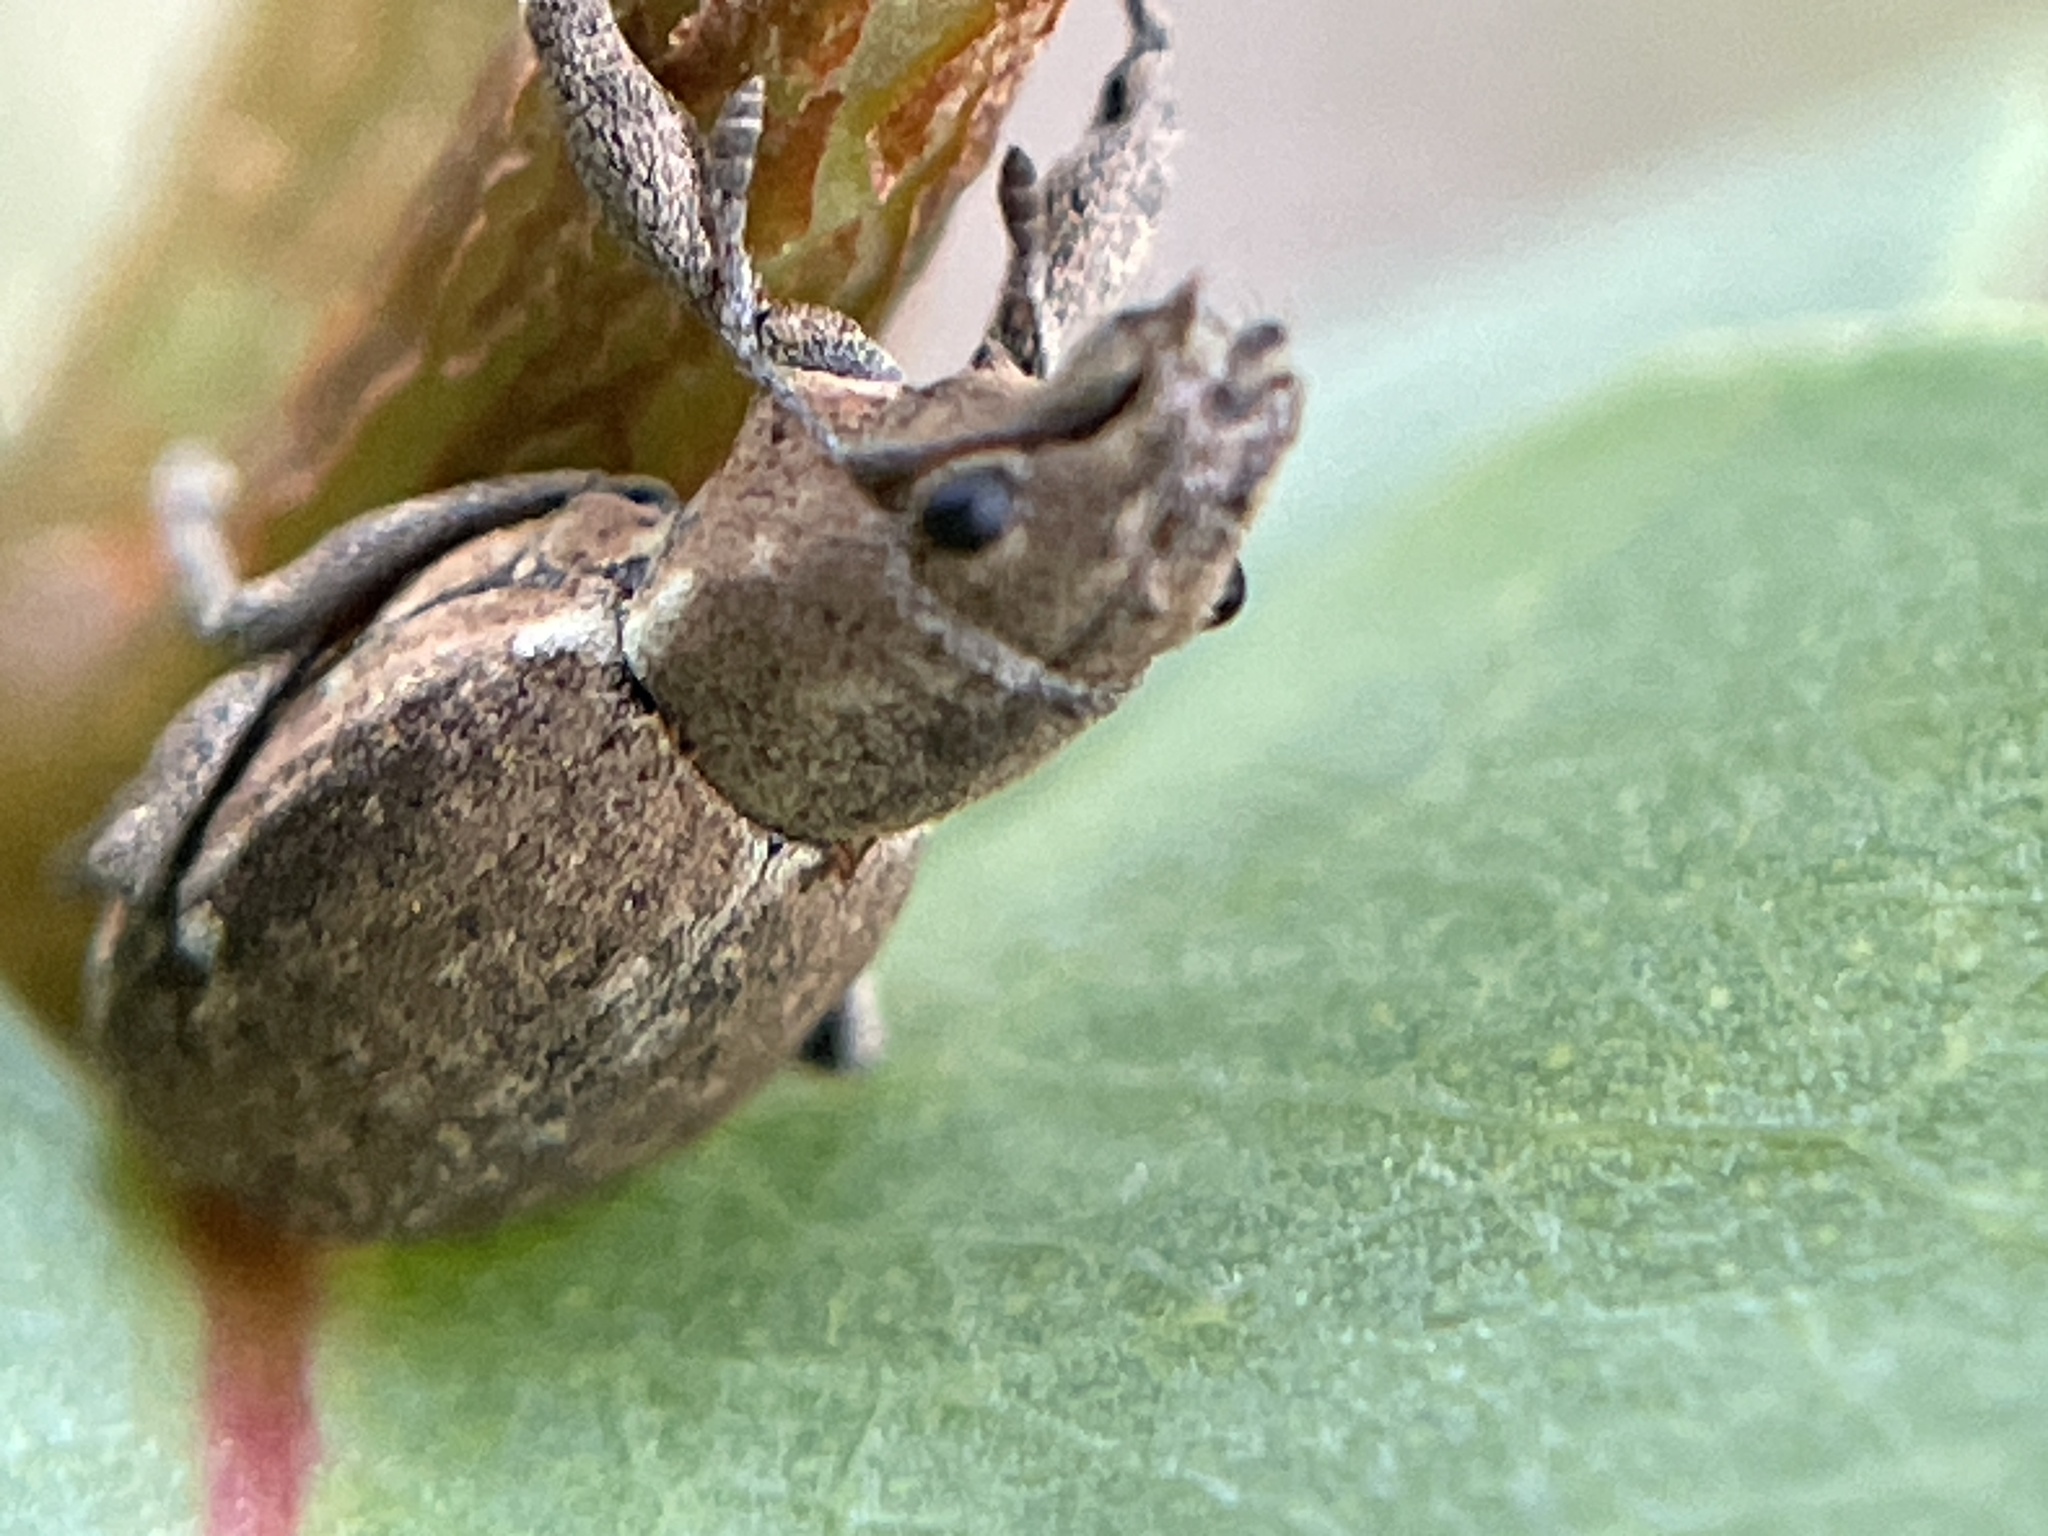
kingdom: Animalia
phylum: Arthropoda
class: Insecta
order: Coleoptera
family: Curculionidae
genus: Naupactus
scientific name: Naupactus cervinus
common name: Fuller rose beetle
